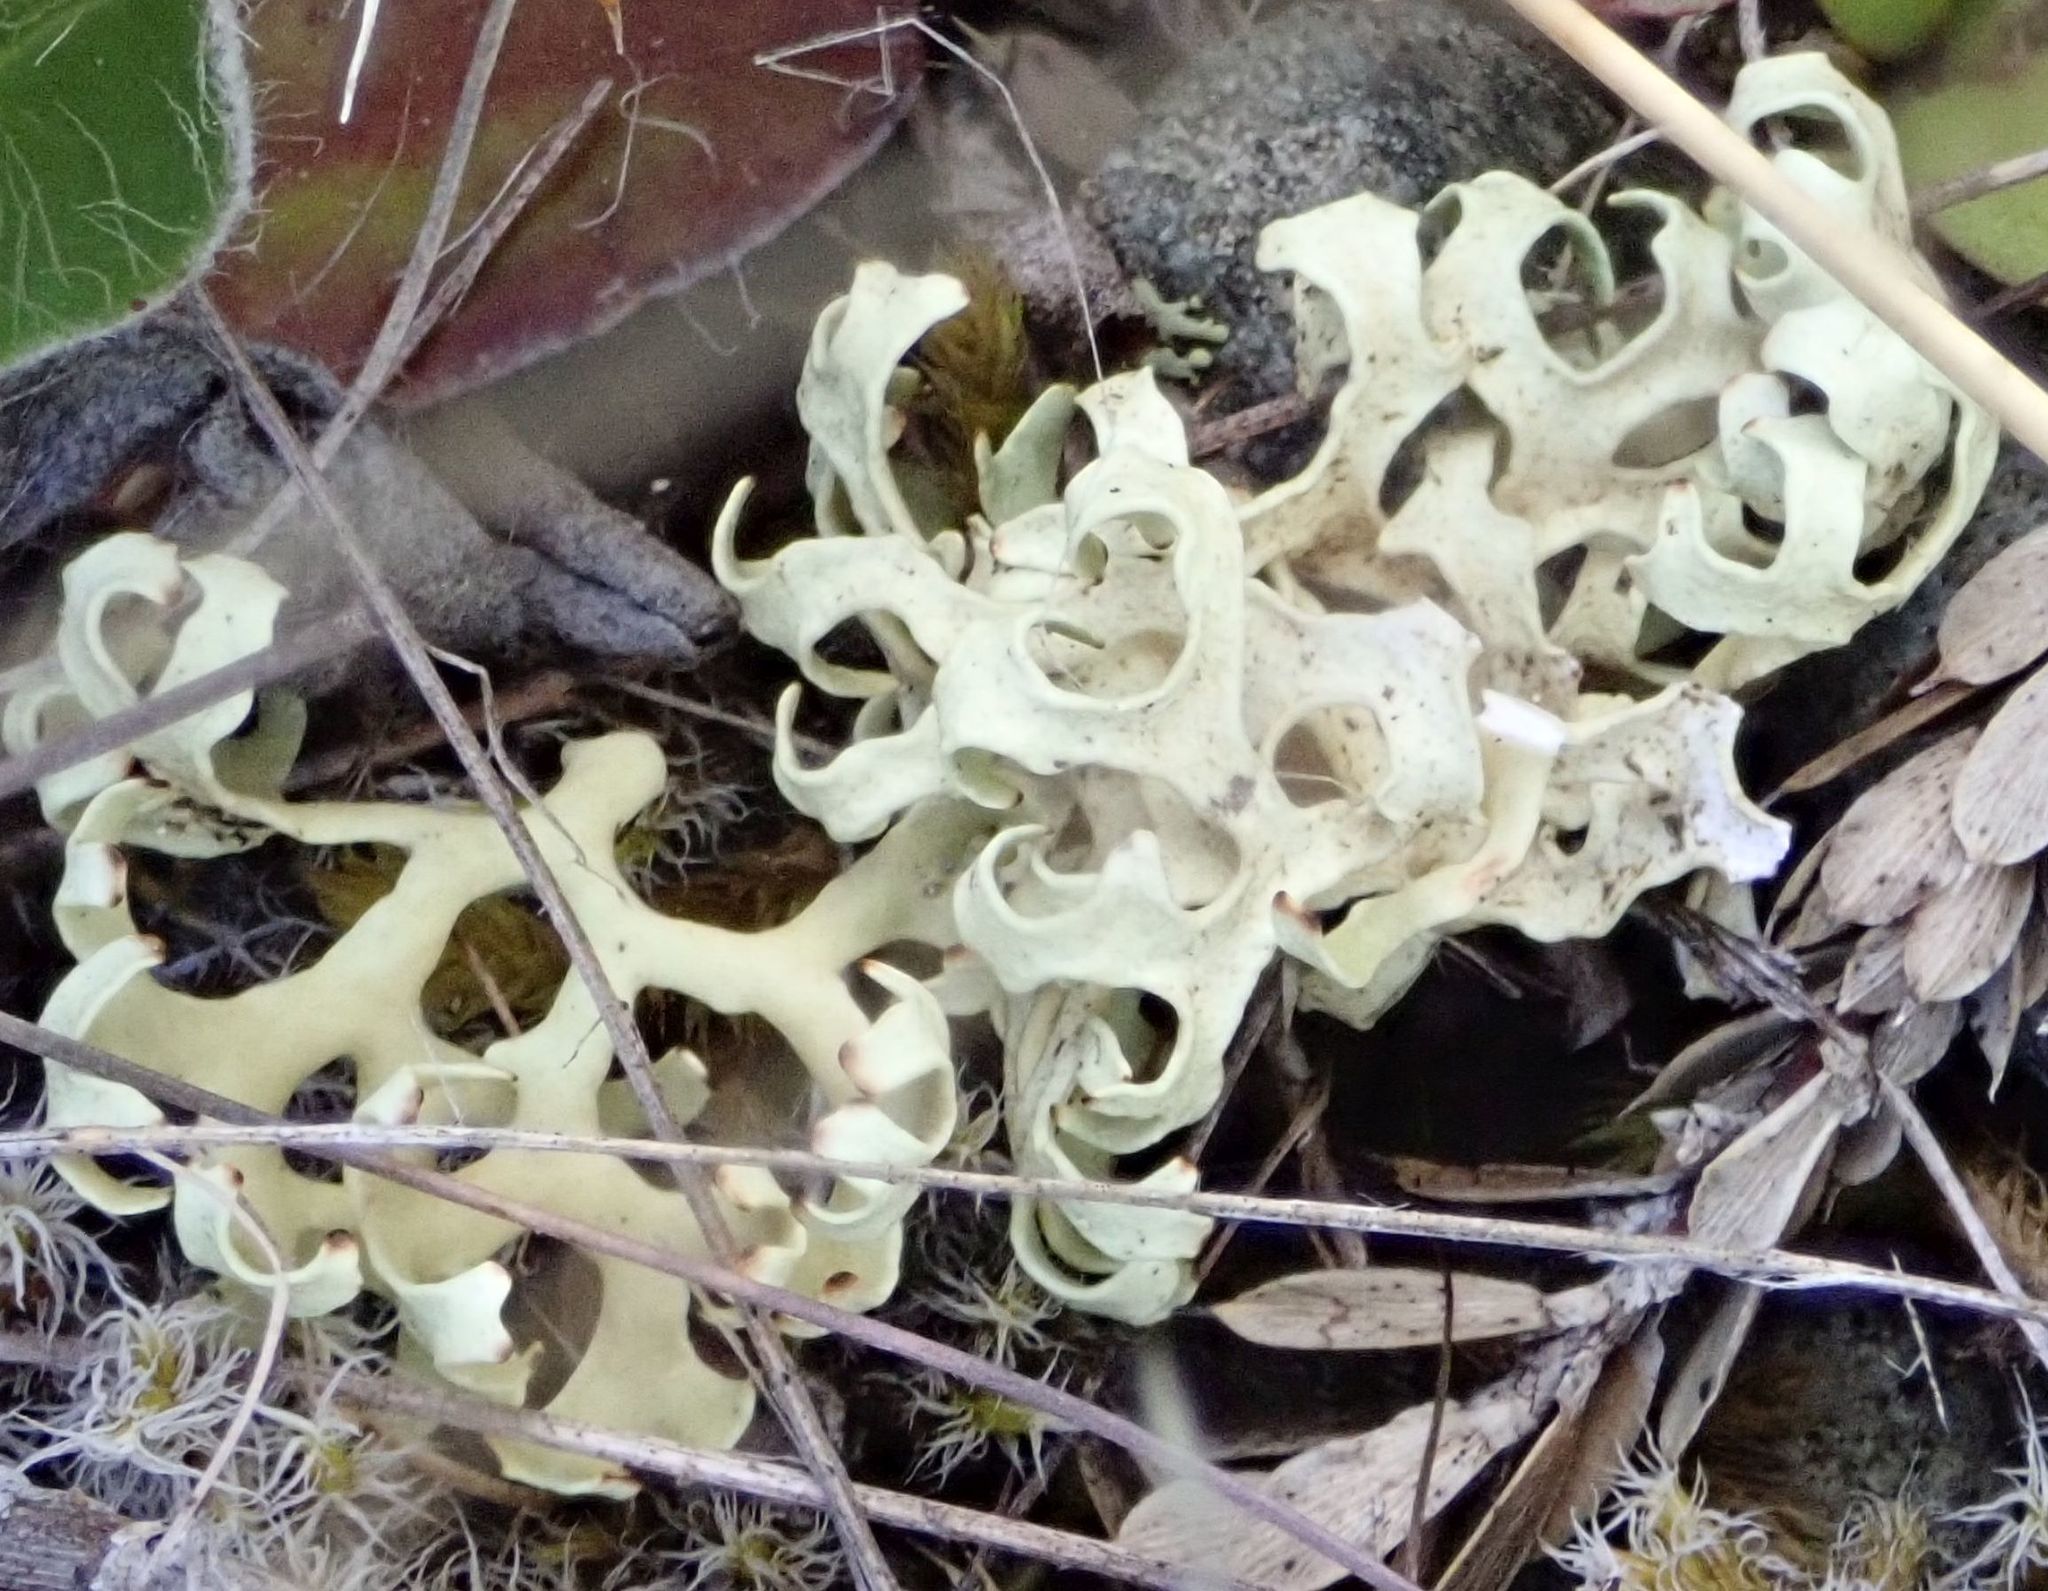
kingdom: Fungi
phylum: Ascomycota
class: Lecanoromycetes
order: Lecanorales
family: Parmeliaceae
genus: Xanthoparmelia
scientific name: Xanthoparmelia semiviridis
